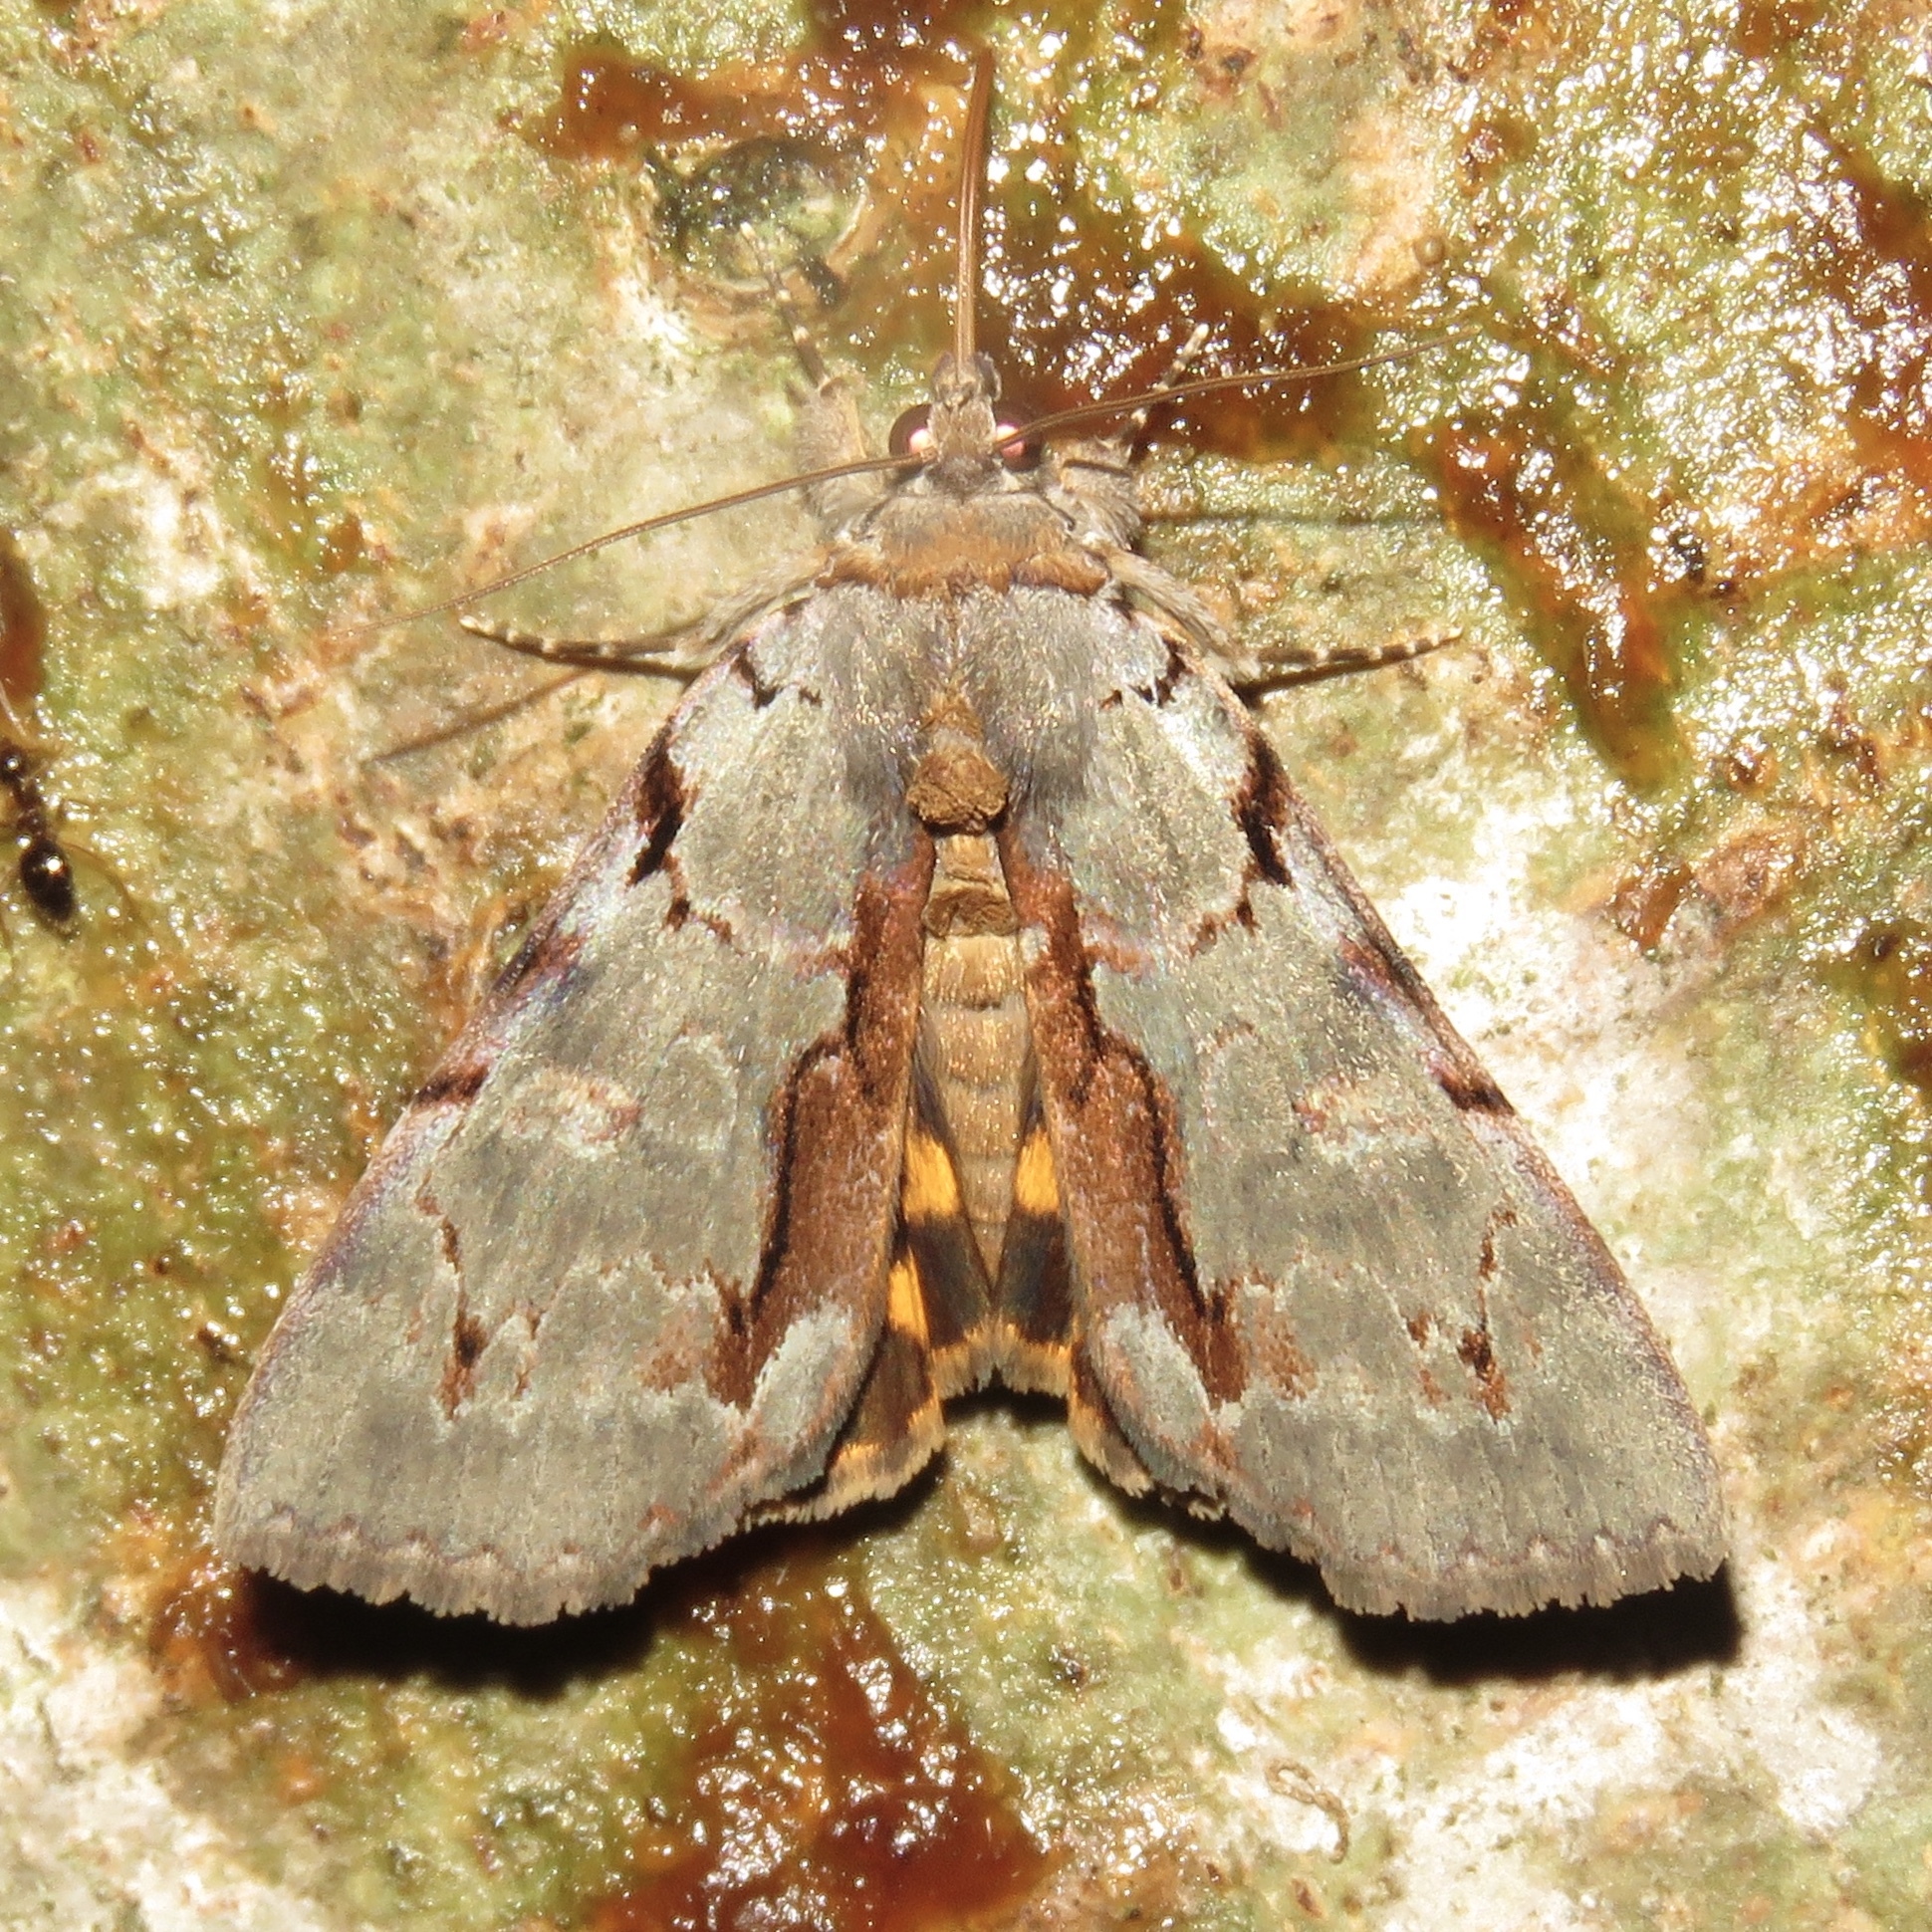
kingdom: Animalia
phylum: Arthropoda
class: Insecta
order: Lepidoptera
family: Erebidae
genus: Catocala
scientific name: Catocala grynea
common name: Woody underwing
